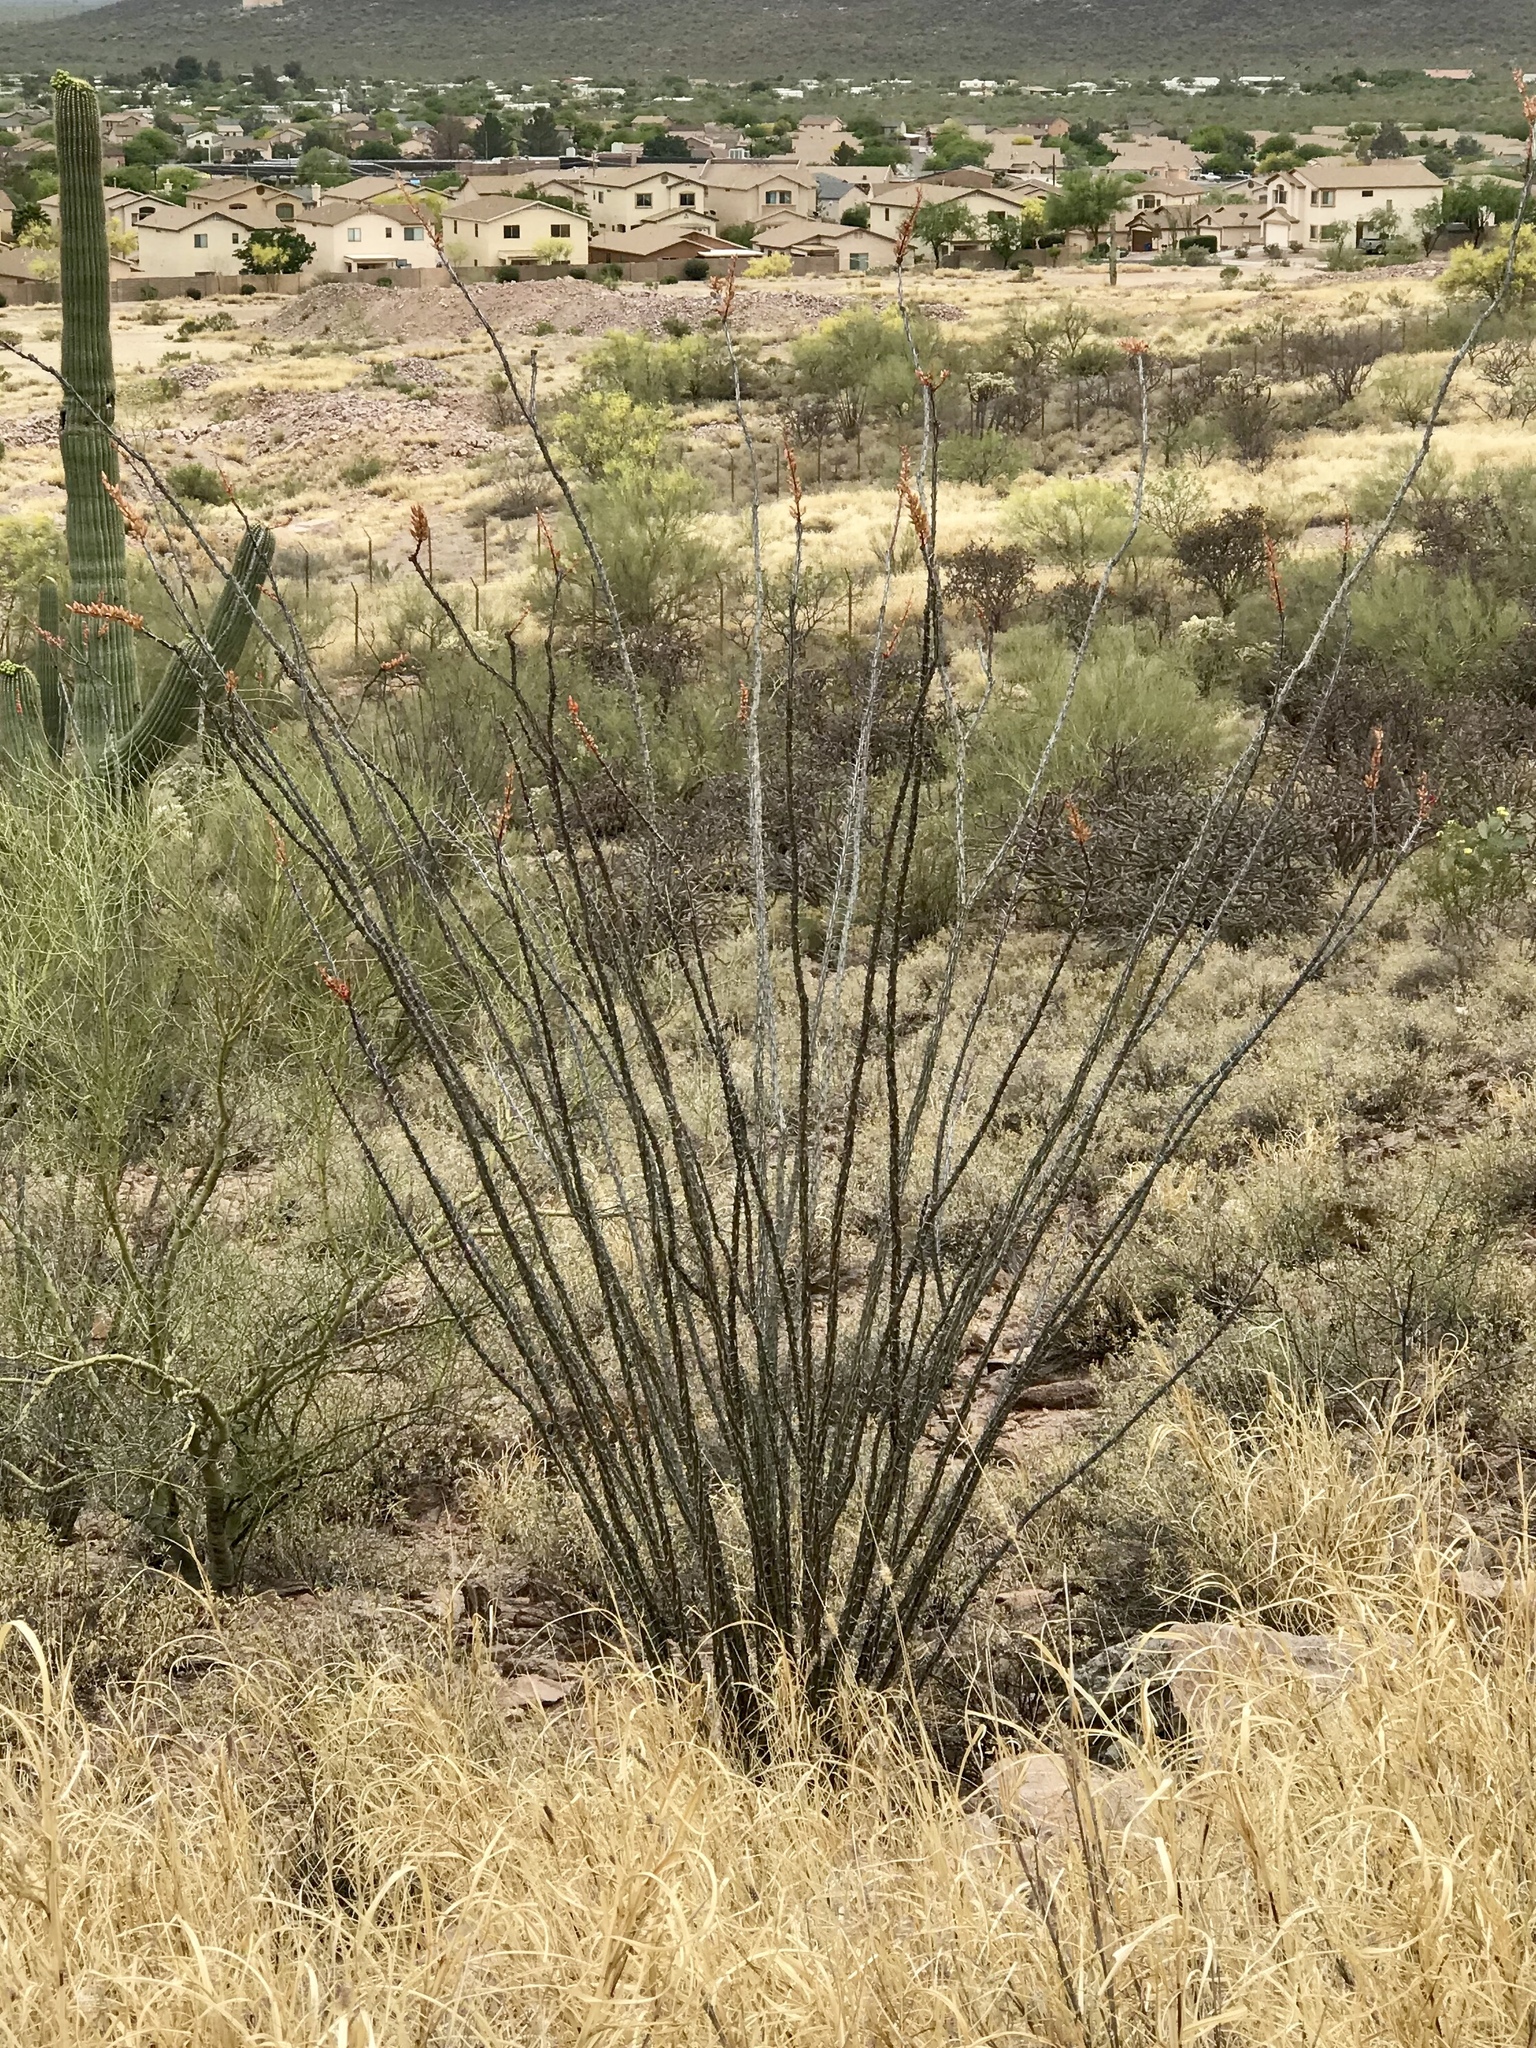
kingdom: Plantae
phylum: Tracheophyta
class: Magnoliopsida
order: Ericales
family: Fouquieriaceae
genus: Fouquieria
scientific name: Fouquieria splendens
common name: Vine-cactus
